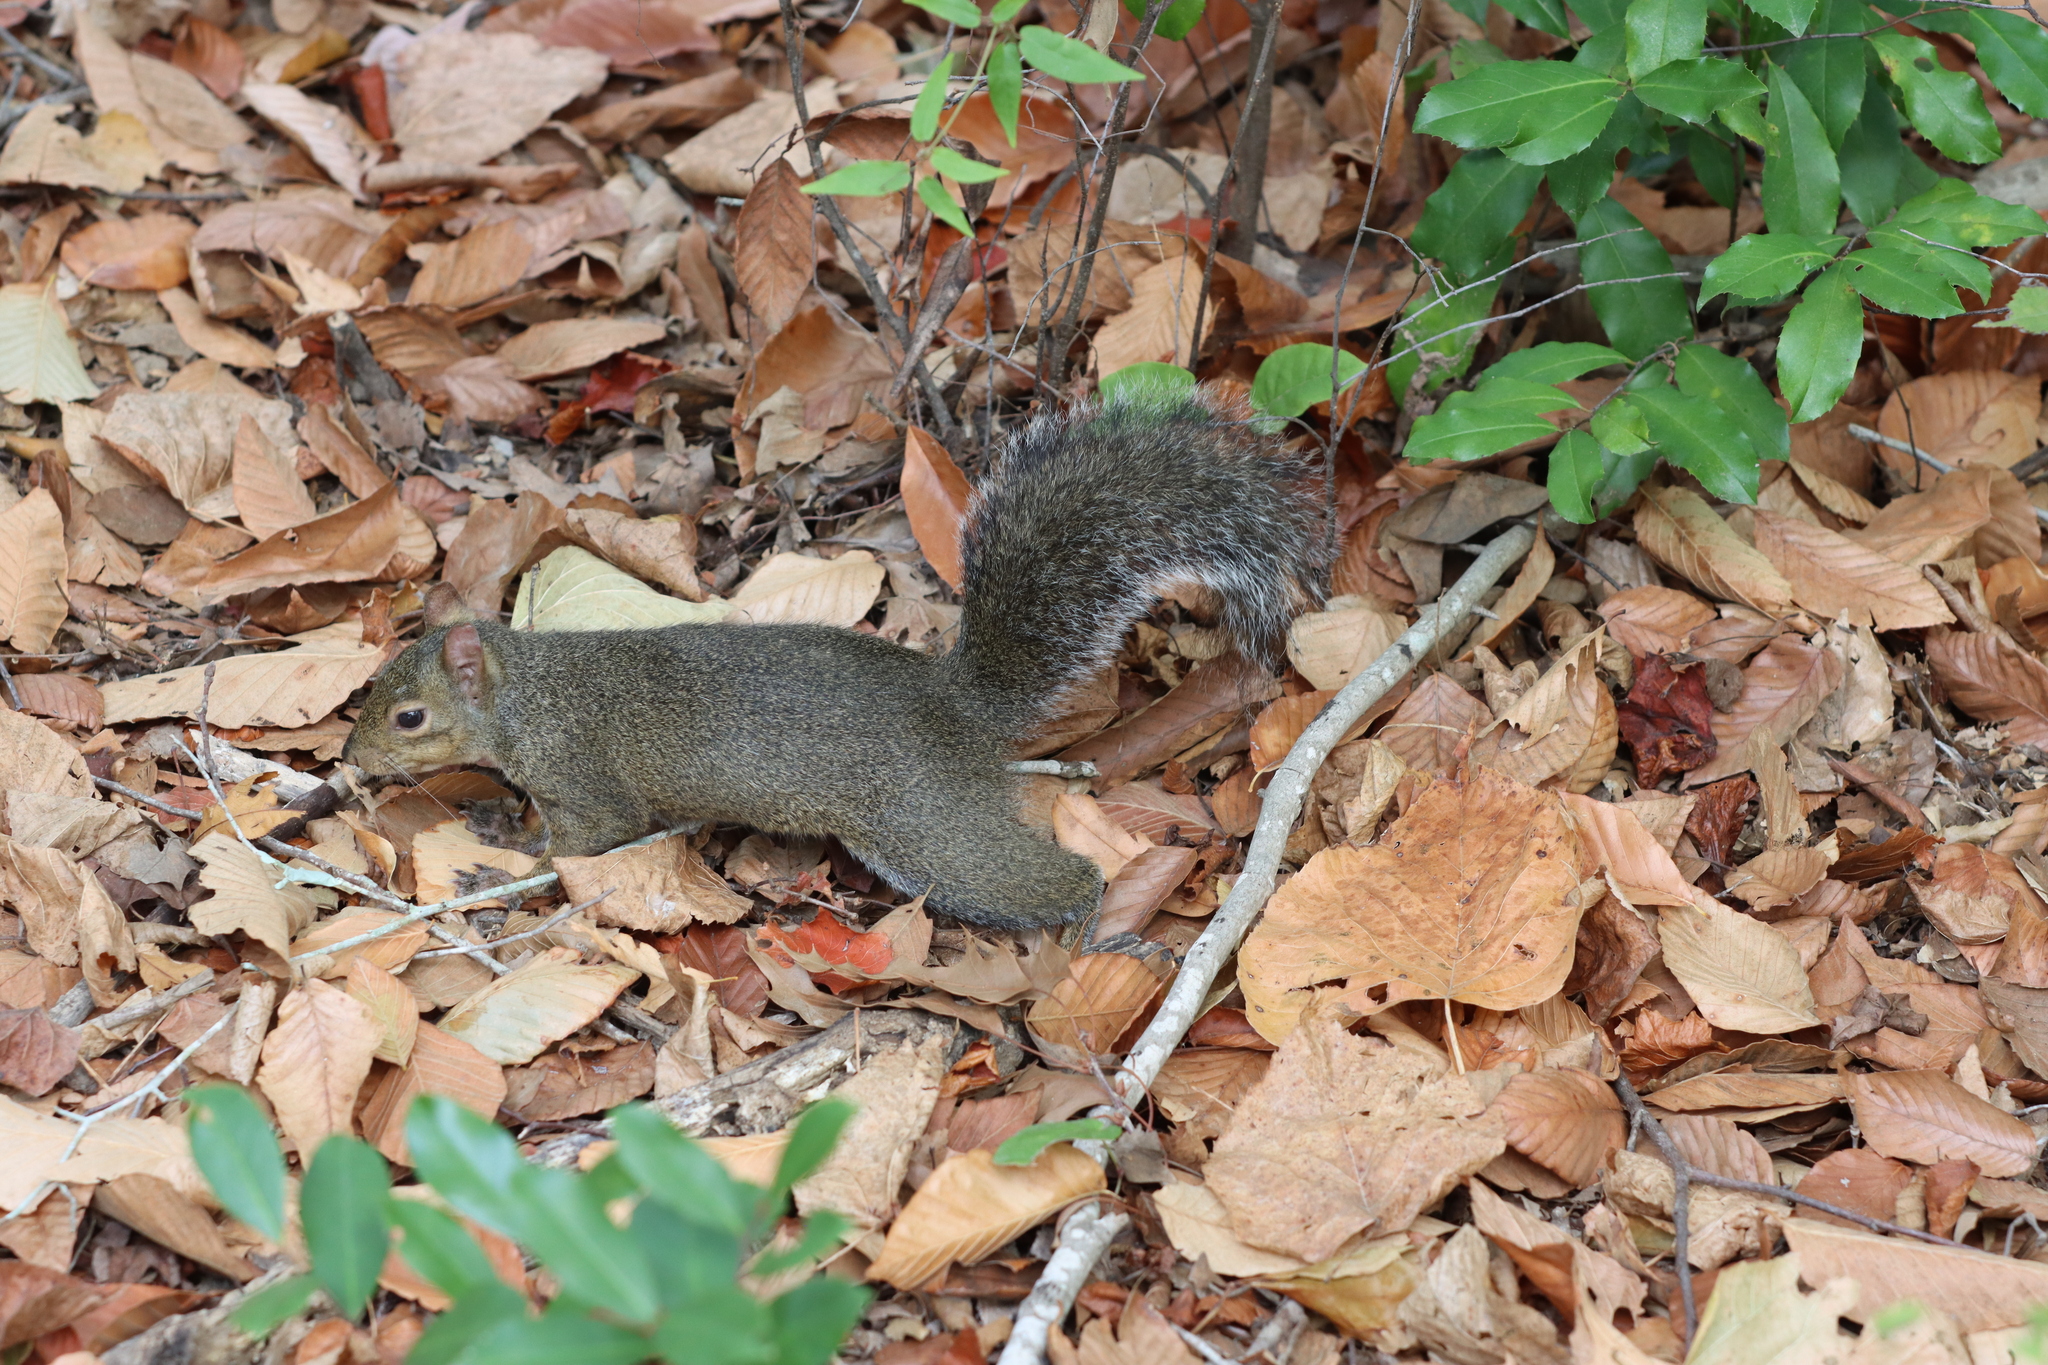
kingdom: Animalia
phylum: Chordata
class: Mammalia
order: Rodentia
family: Sciuridae
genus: Sciurus
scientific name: Sciurus carolinensis
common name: Eastern gray squirrel
